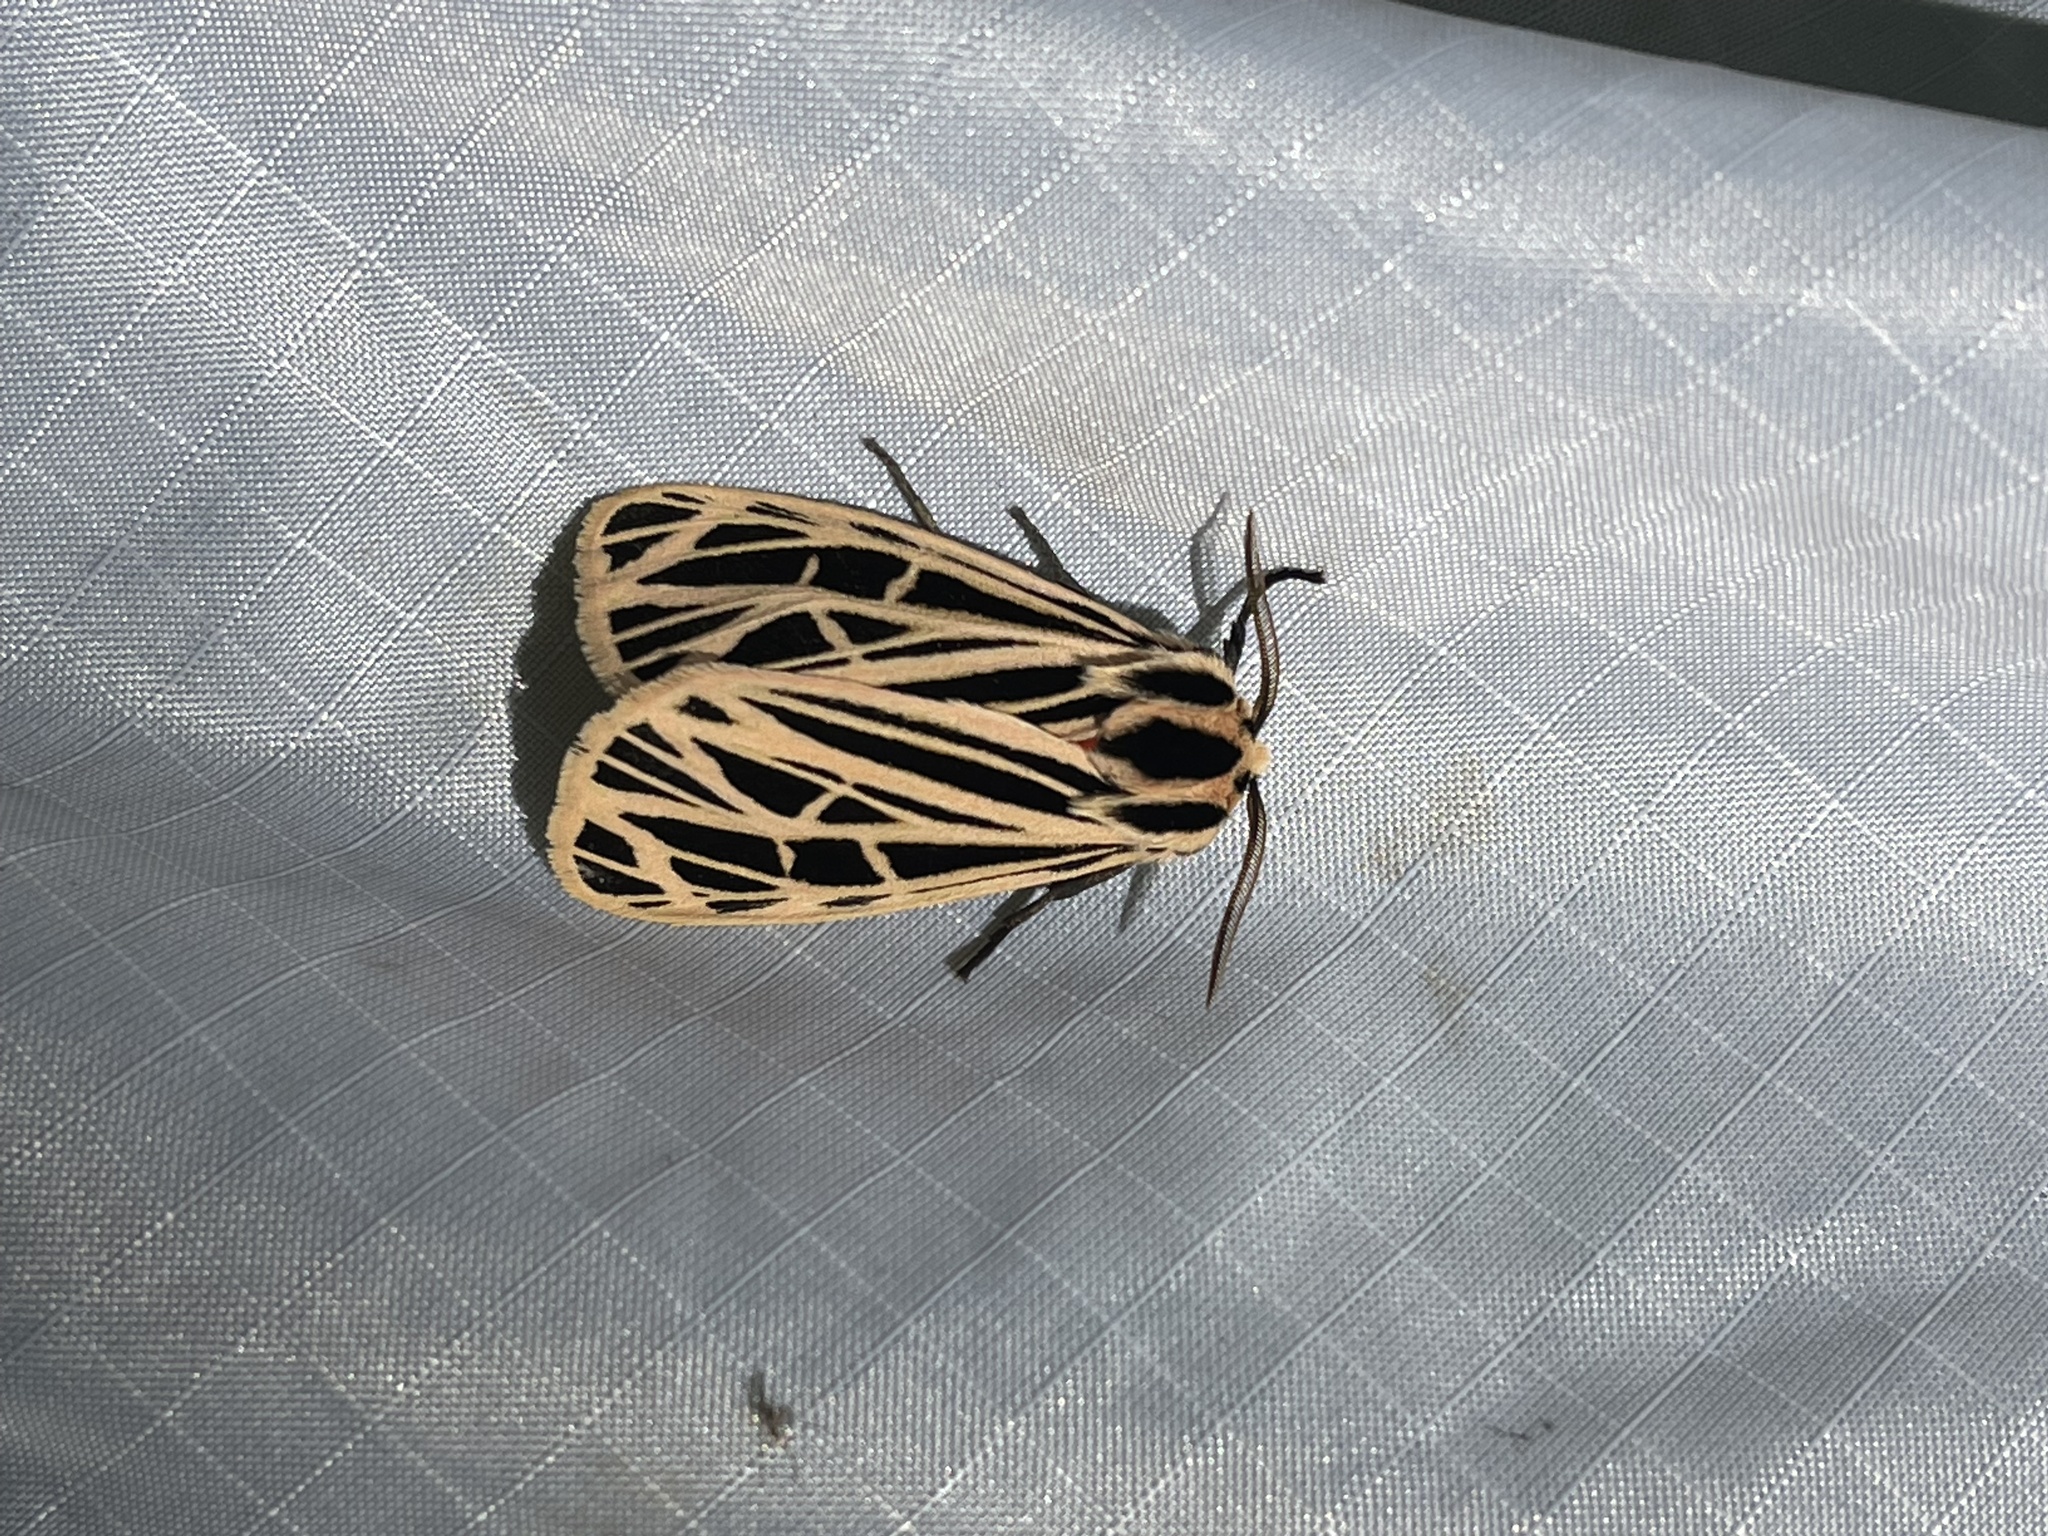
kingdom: Animalia
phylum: Arthropoda
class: Insecta
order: Lepidoptera
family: Erebidae
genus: Grammia
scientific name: Grammia virgo
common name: Virgin tiger moth
